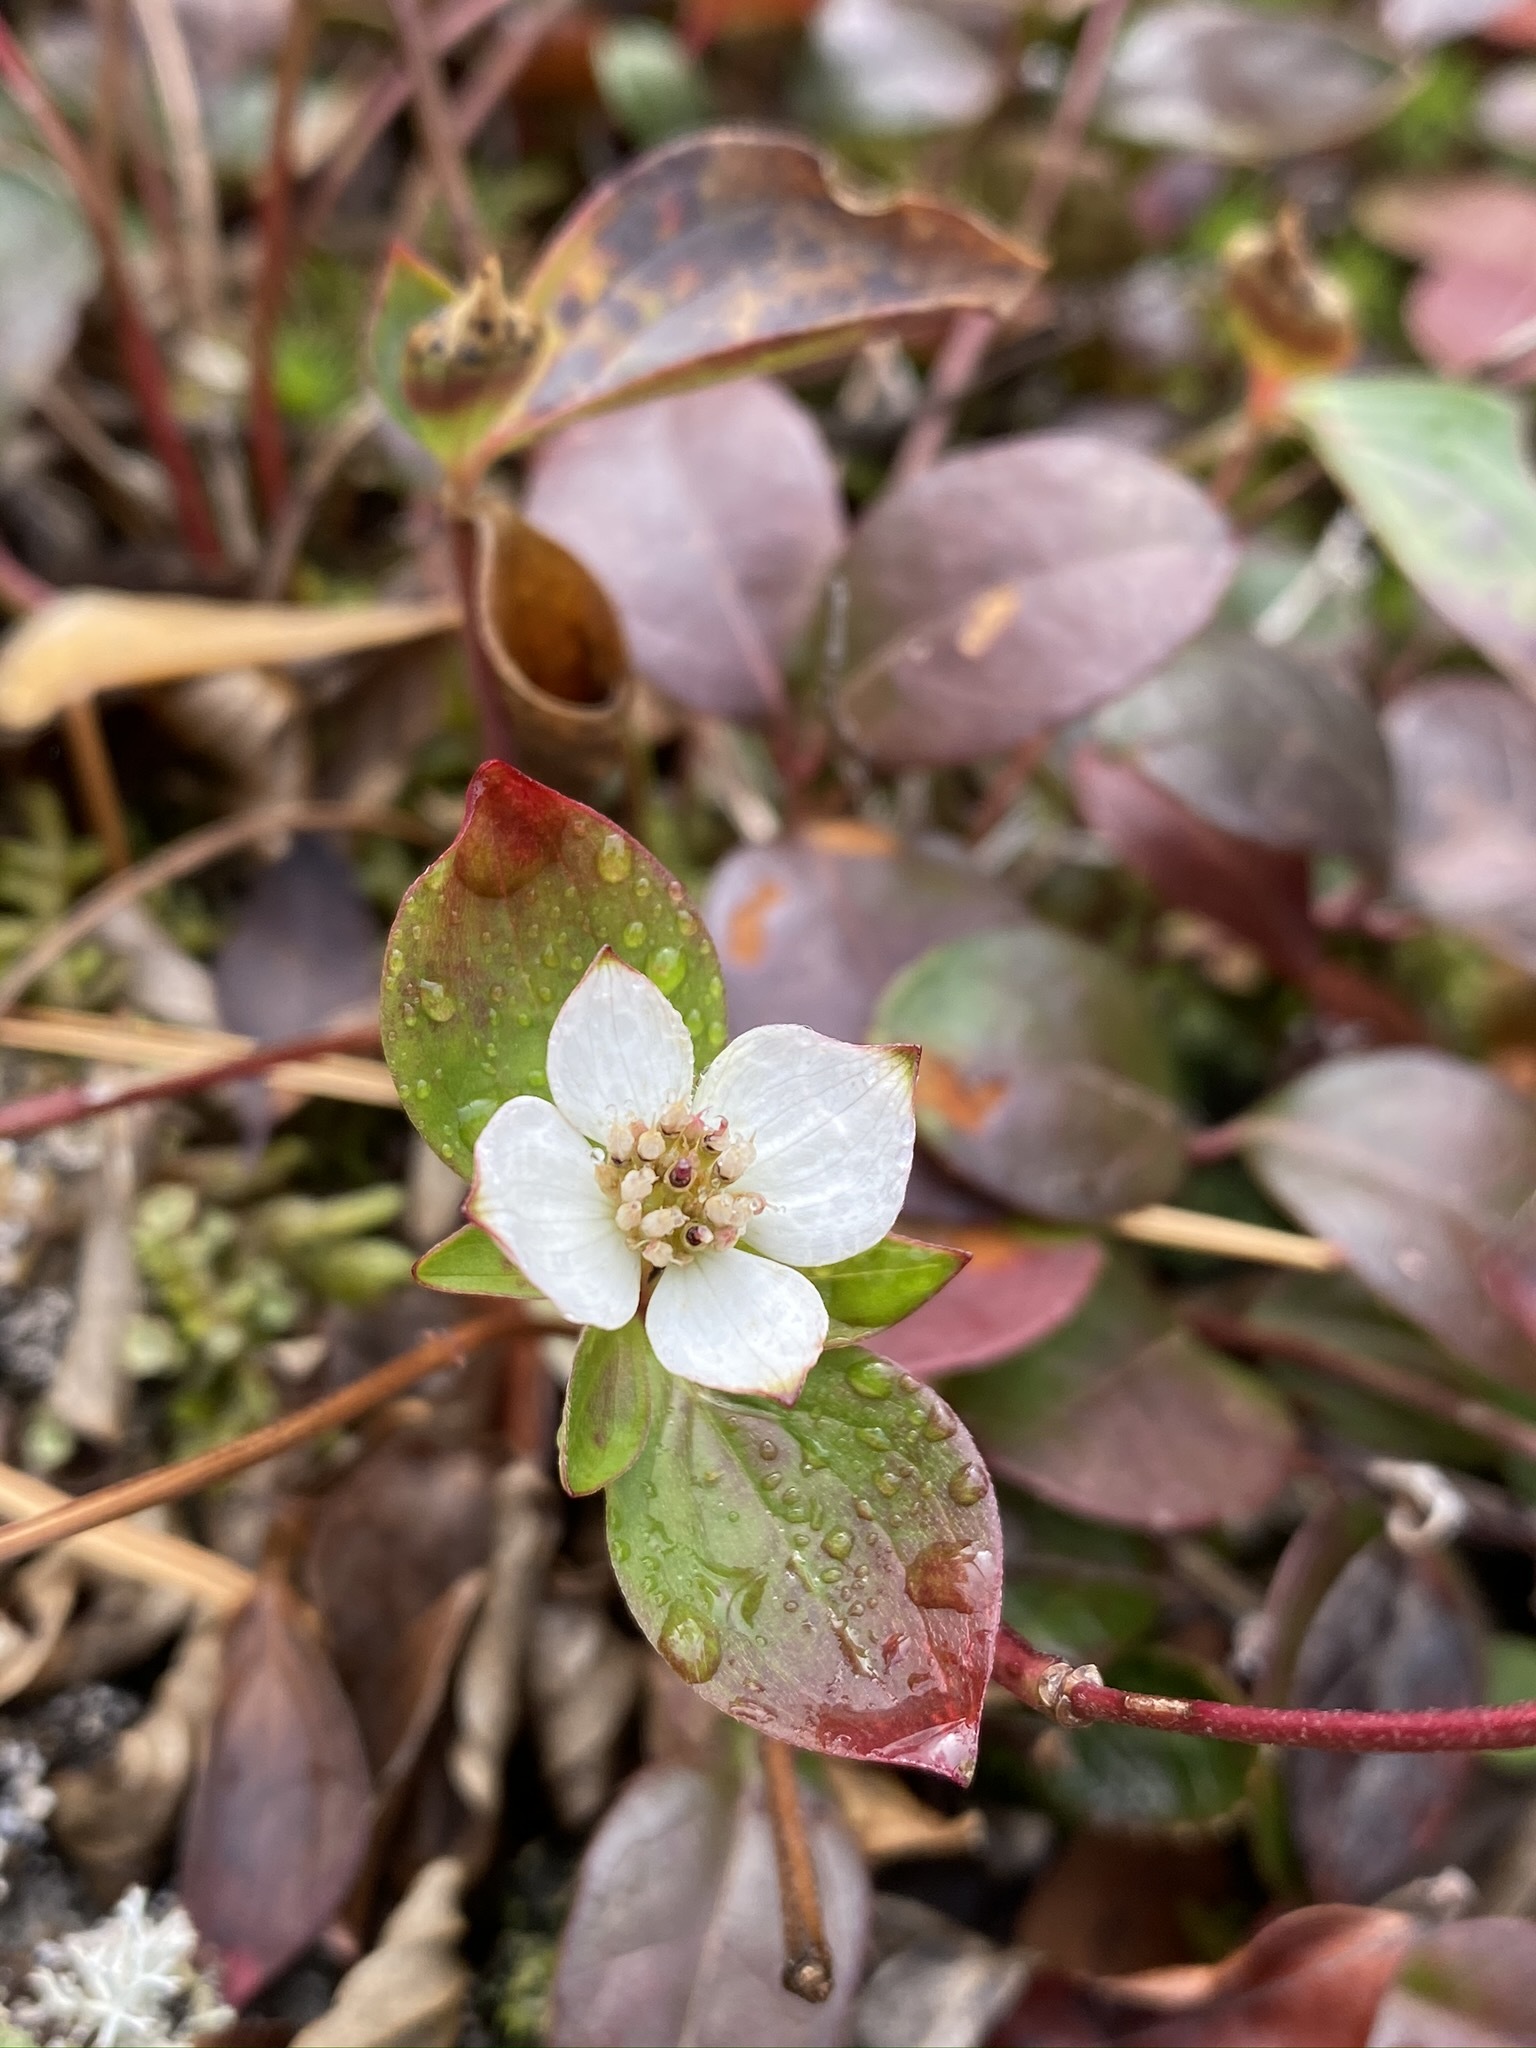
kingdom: Plantae
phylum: Tracheophyta
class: Magnoliopsida
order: Cornales
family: Cornaceae
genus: Cornus
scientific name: Cornus canadensis
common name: Creeping dogwood
